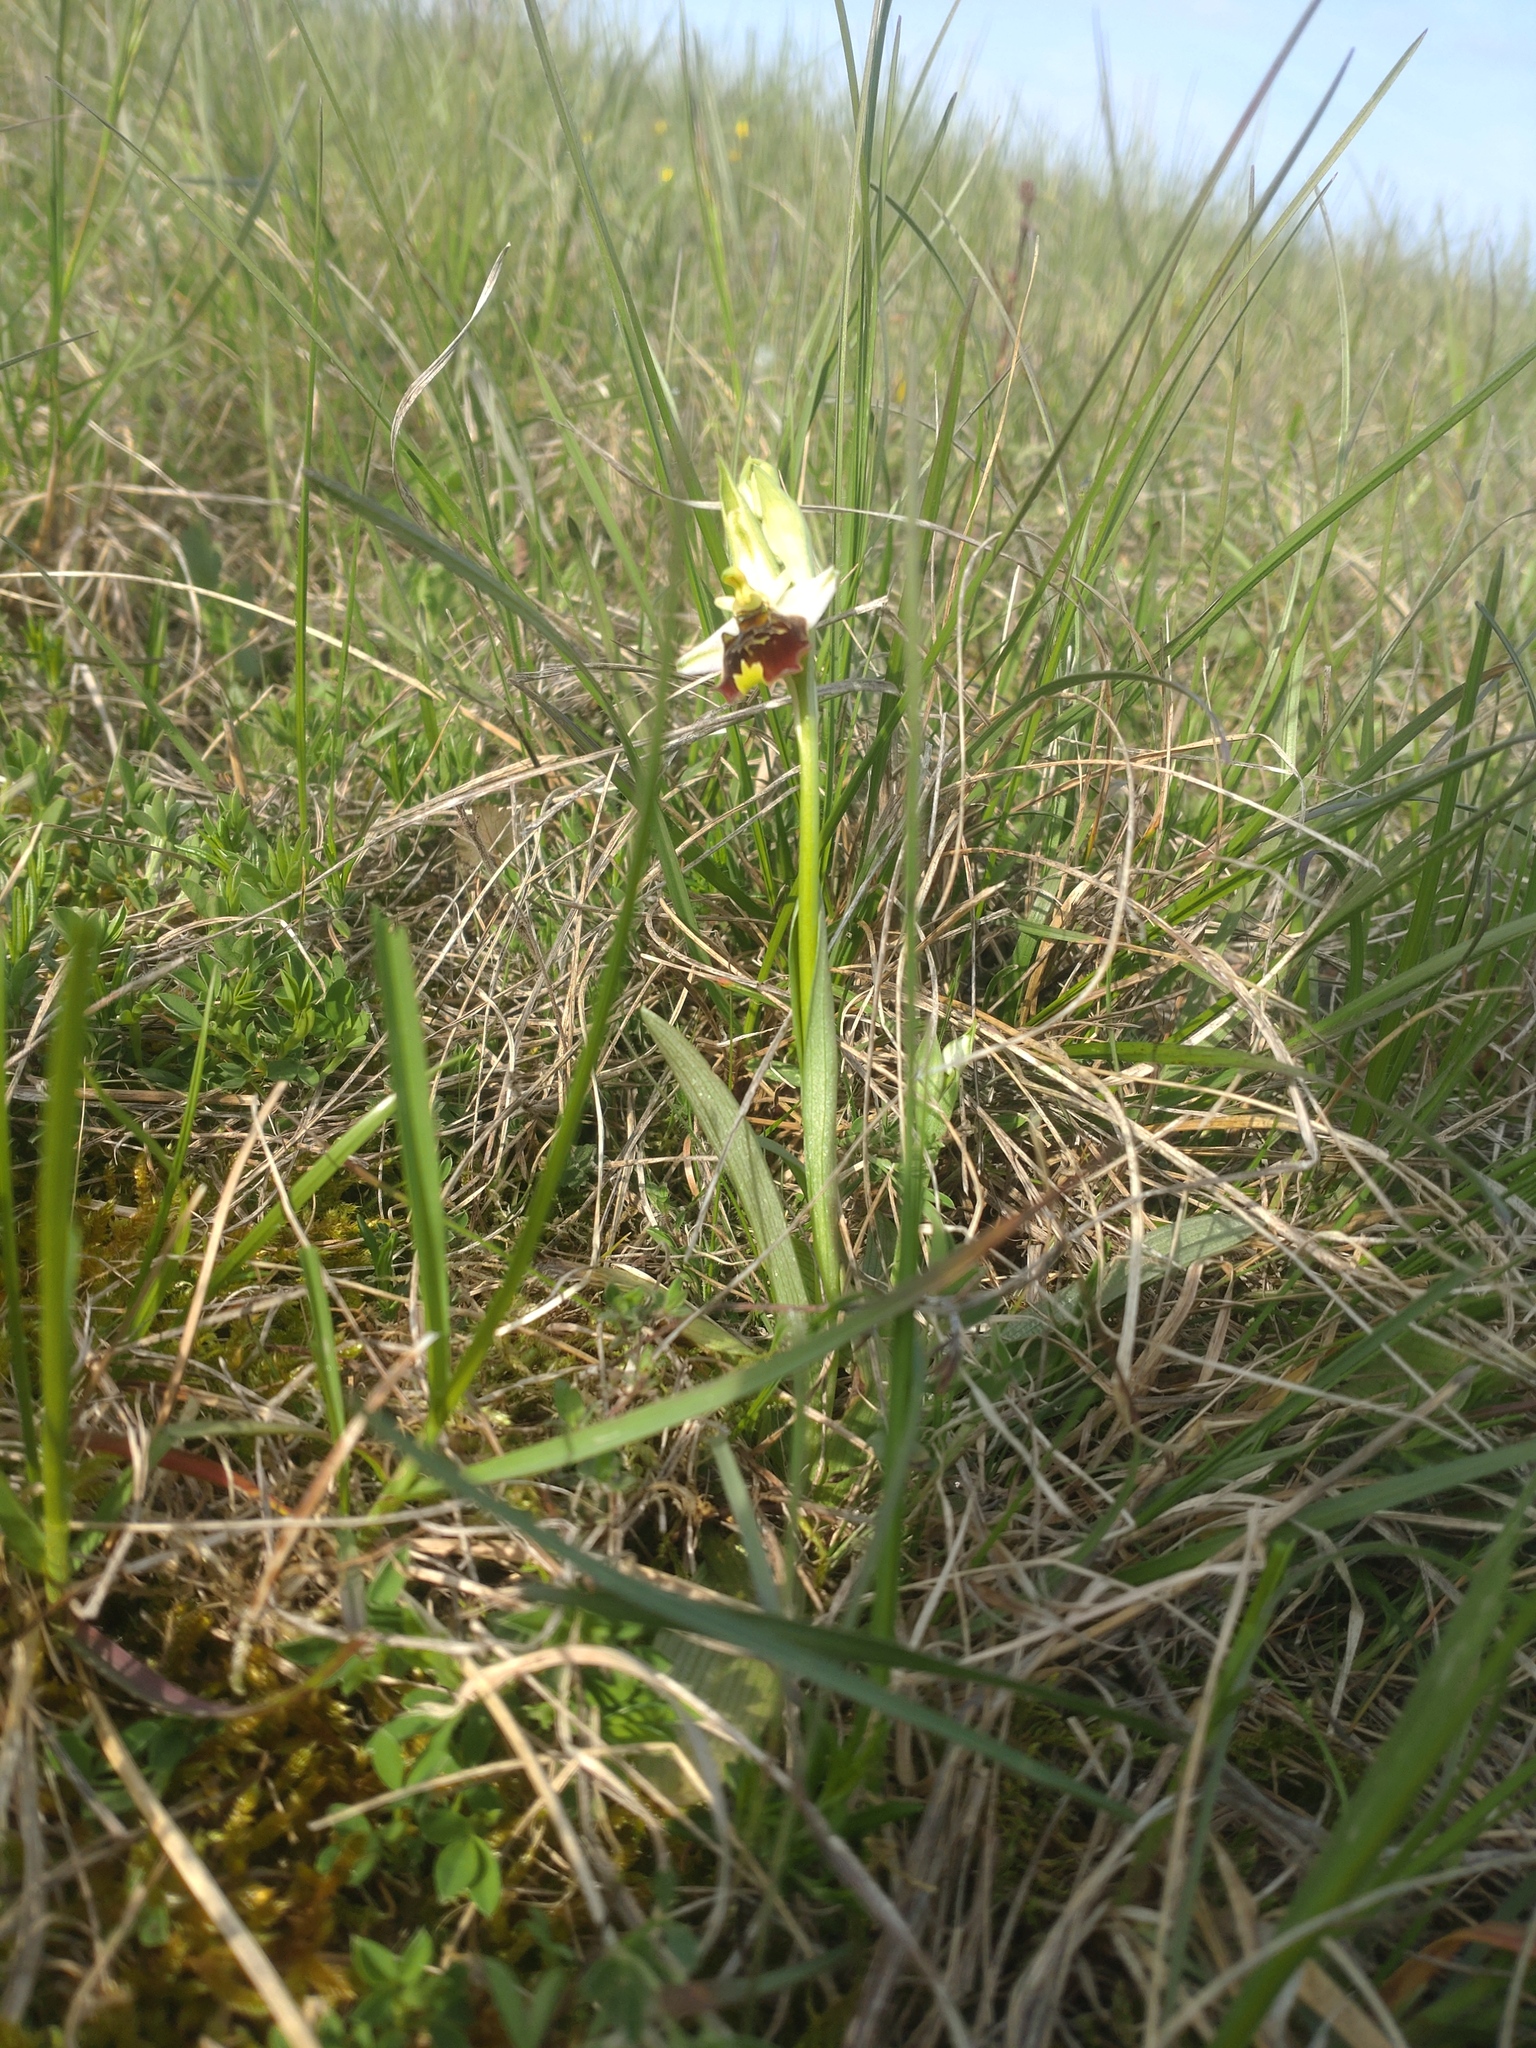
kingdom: Plantae
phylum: Tracheophyta
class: Liliopsida
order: Asparagales
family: Orchidaceae
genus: Ophrys
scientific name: Ophrys holosericea
